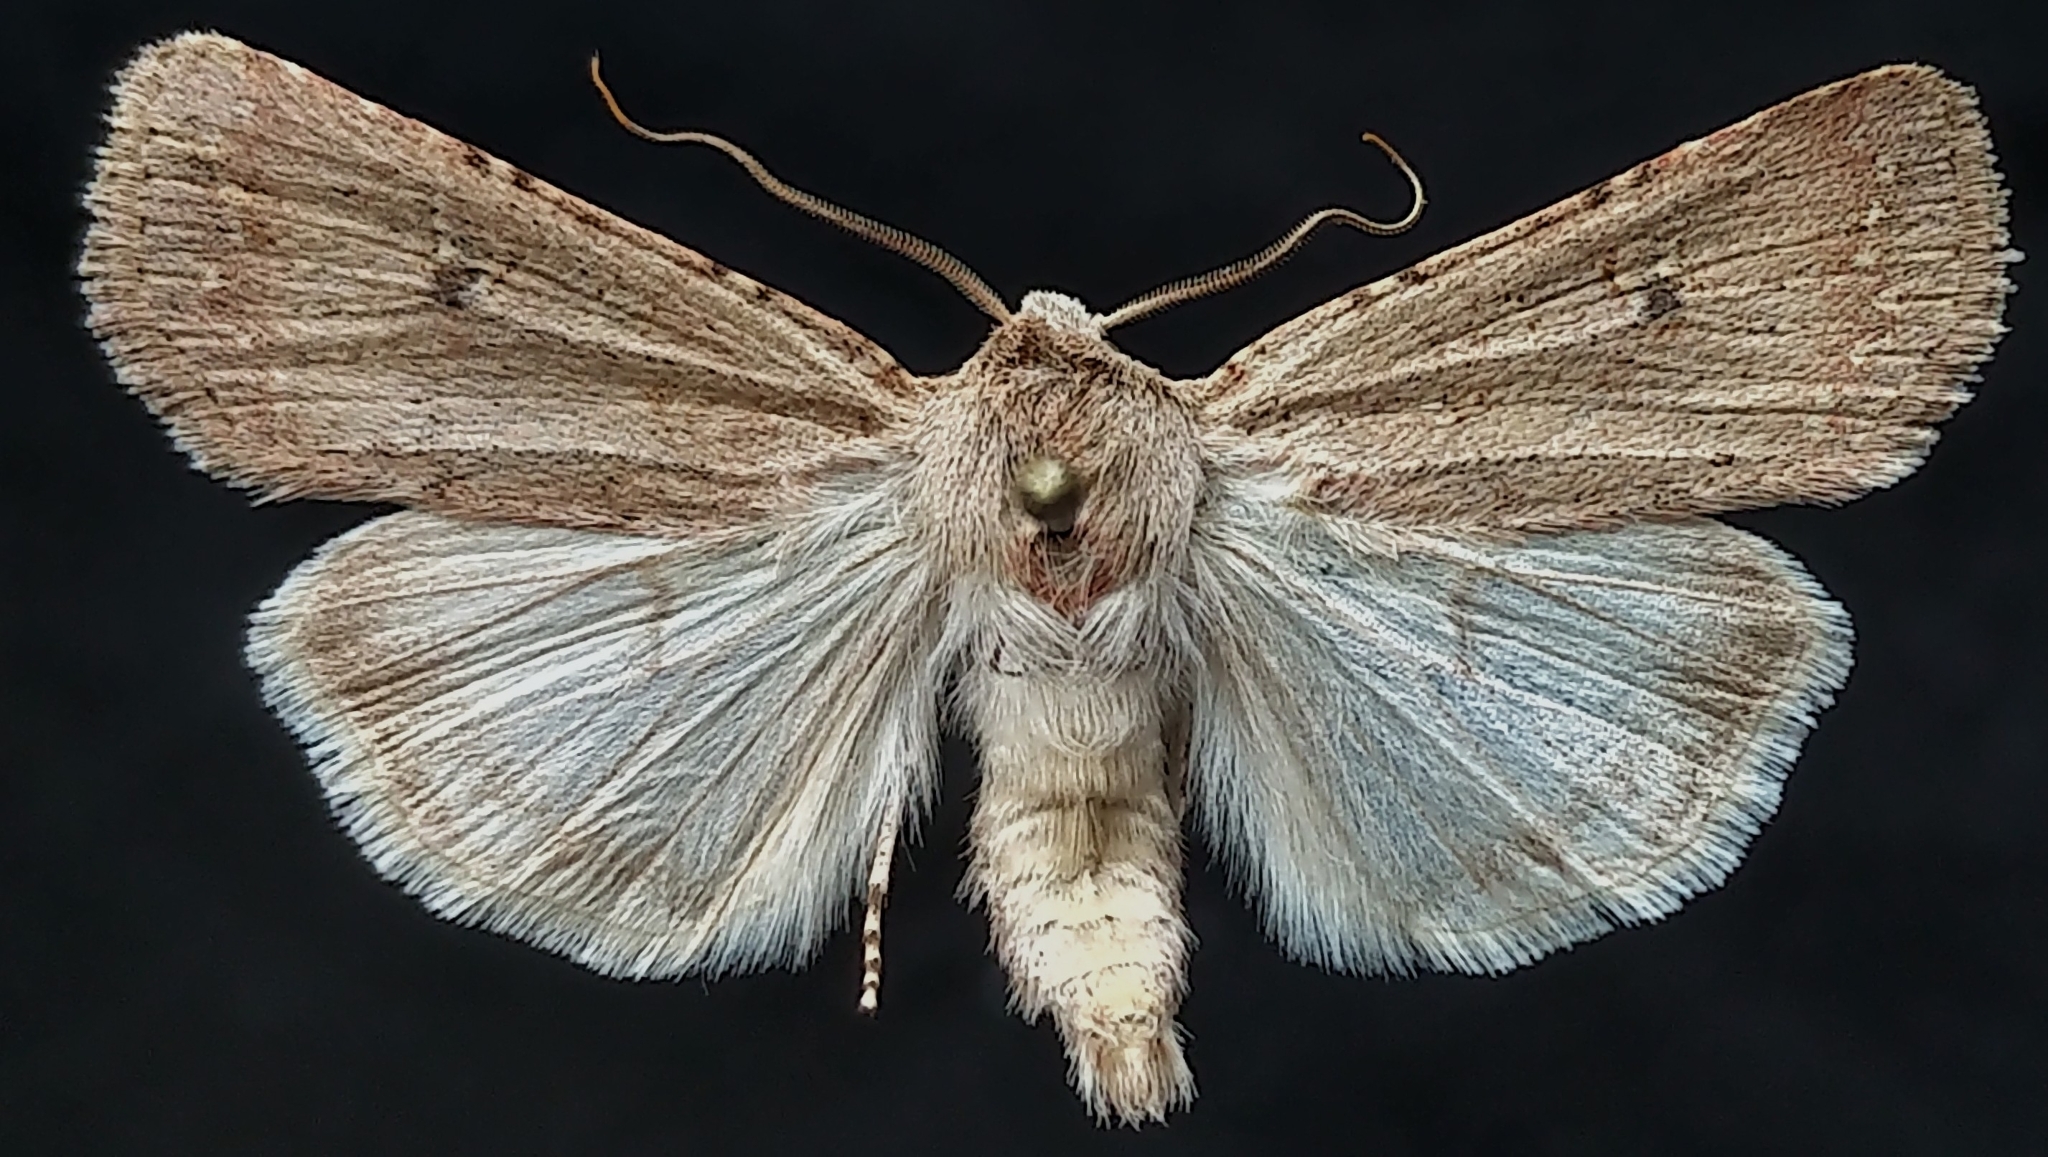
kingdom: Animalia
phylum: Arthropoda
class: Insecta
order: Lepidoptera
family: Noctuidae
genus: Euxoa
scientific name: Euxoa scandens
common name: White cutworm
